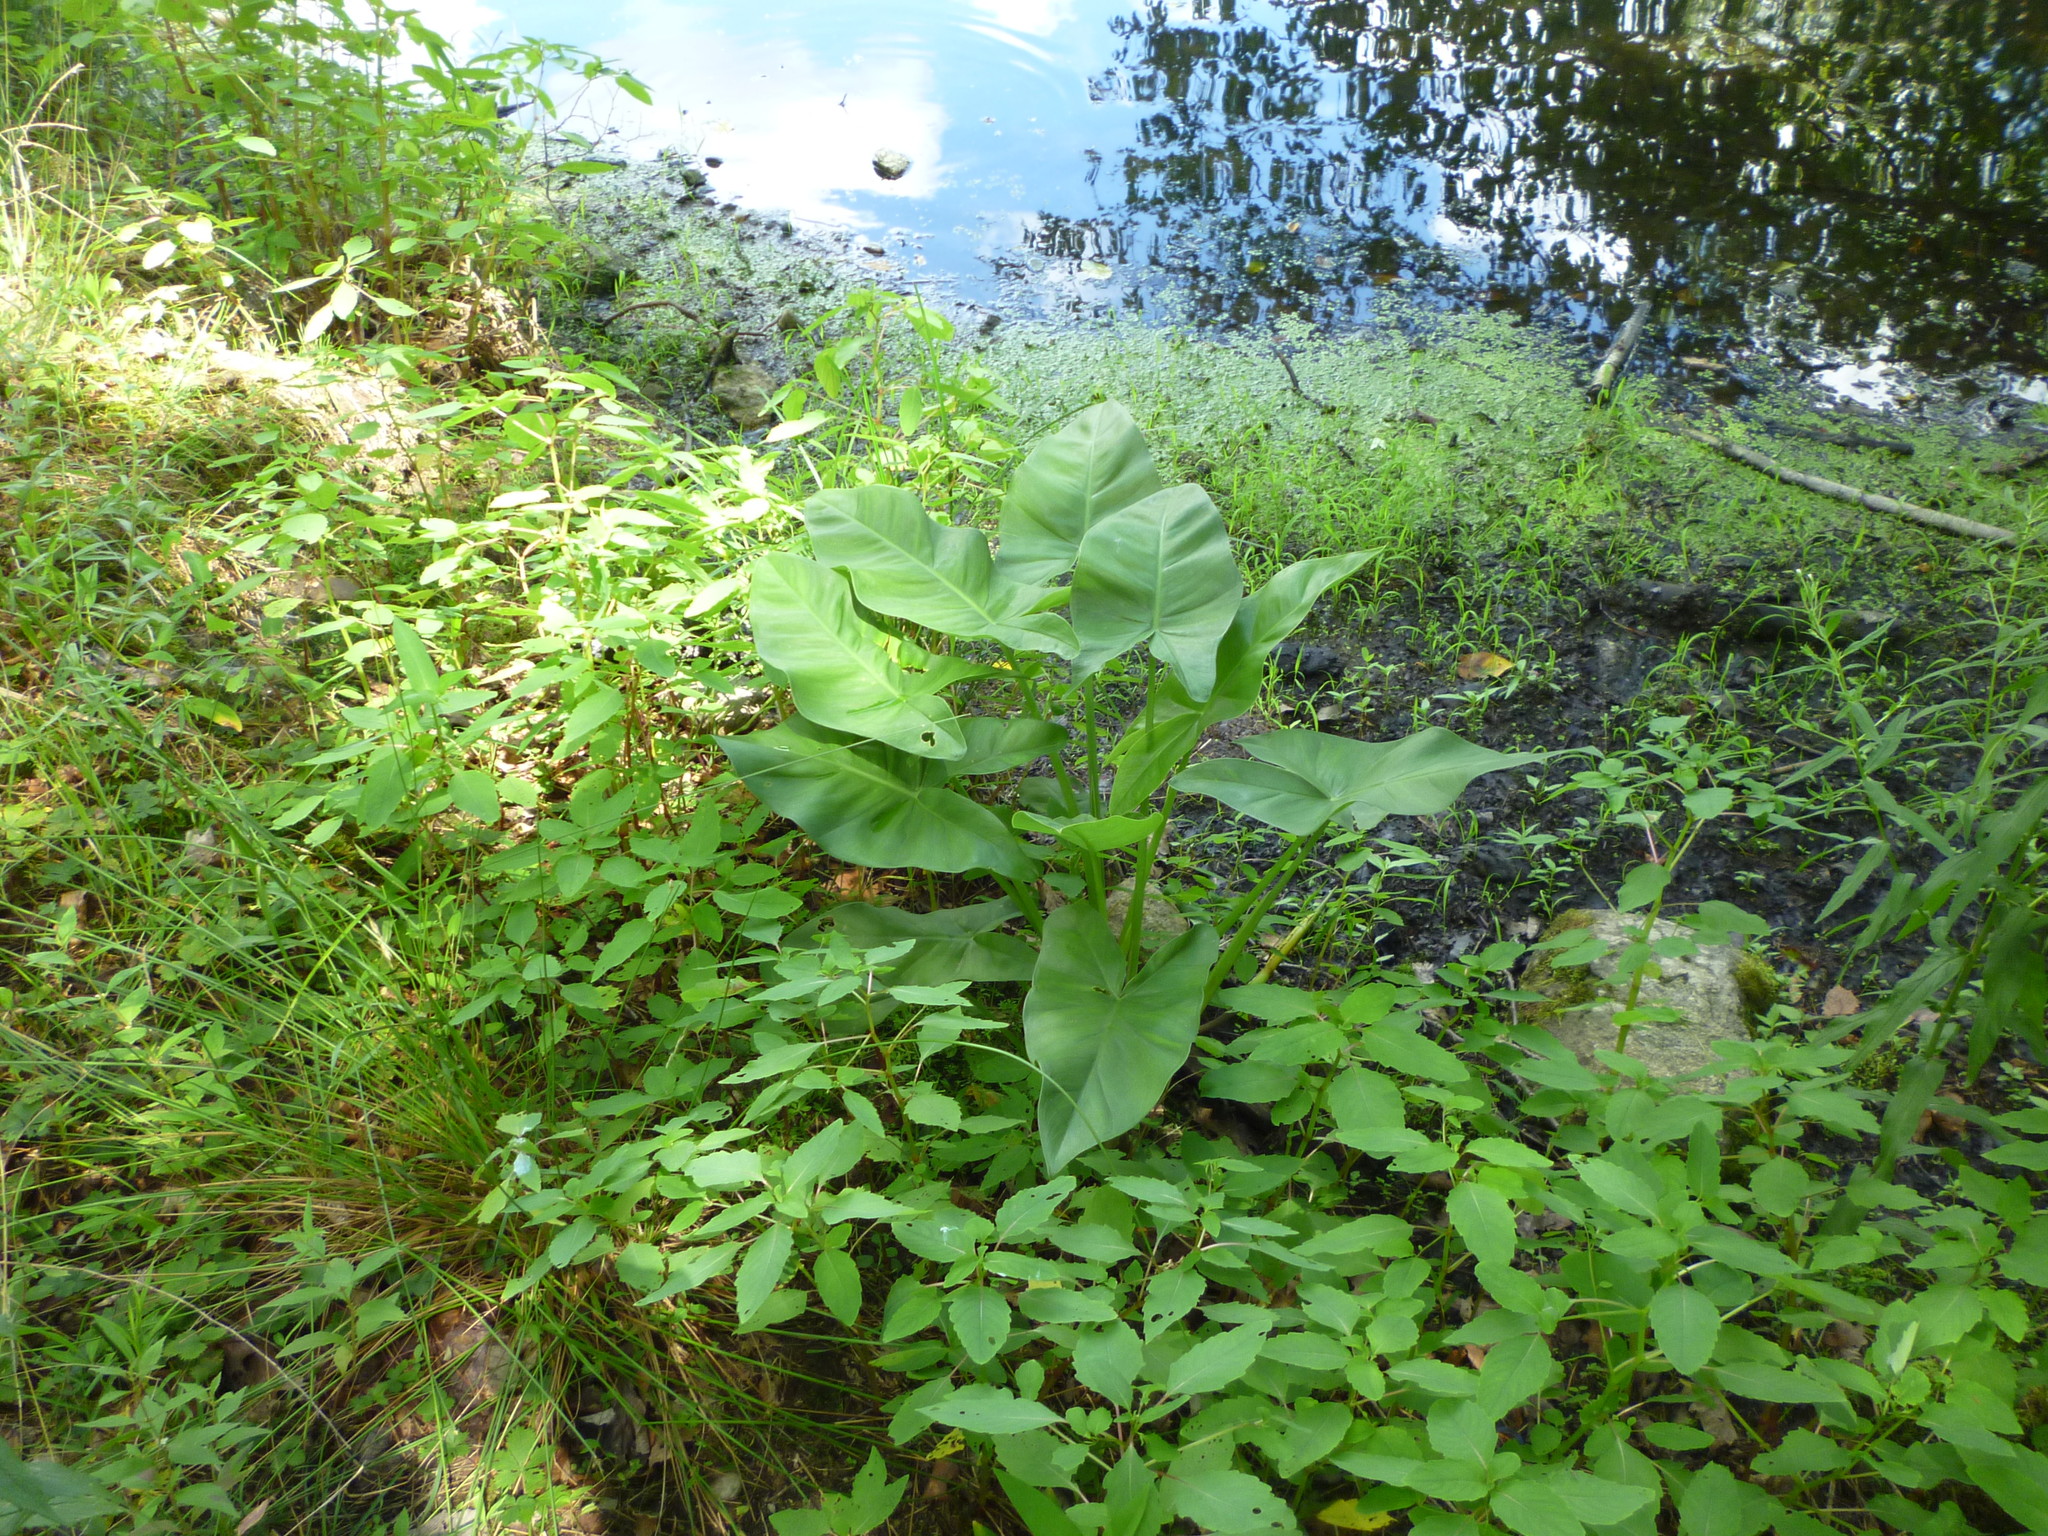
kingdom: Plantae
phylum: Tracheophyta
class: Magnoliopsida
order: Ericales
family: Balsaminaceae
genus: Impatiens
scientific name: Impatiens
